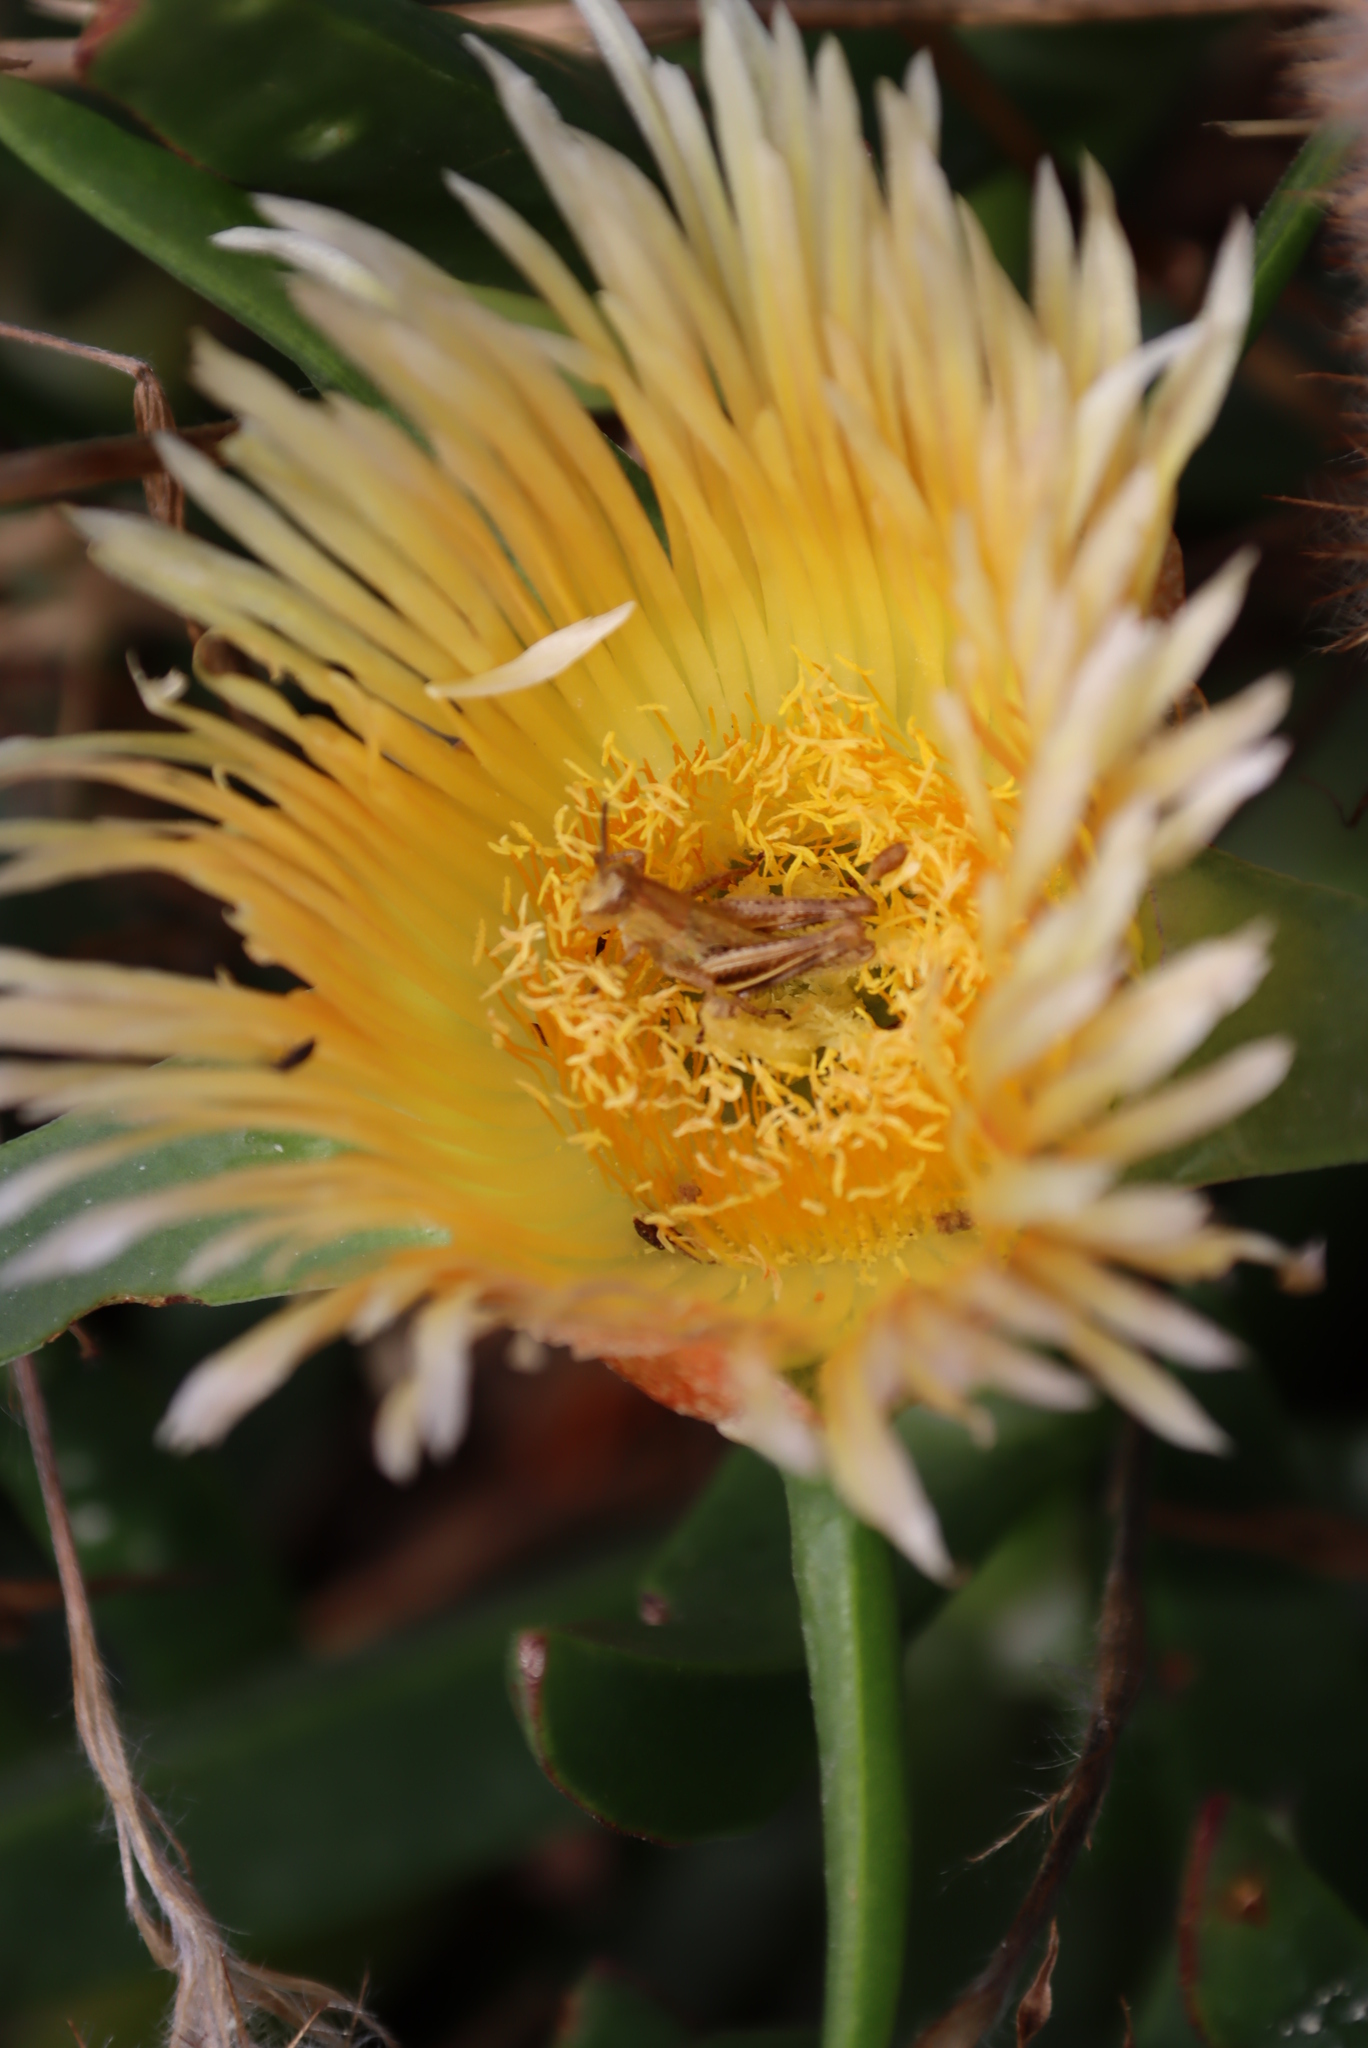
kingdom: Plantae
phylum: Tracheophyta
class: Magnoliopsida
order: Caryophyllales
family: Aizoaceae
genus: Carpobrotus
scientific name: Carpobrotus edulis
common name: Hottentot-fig
